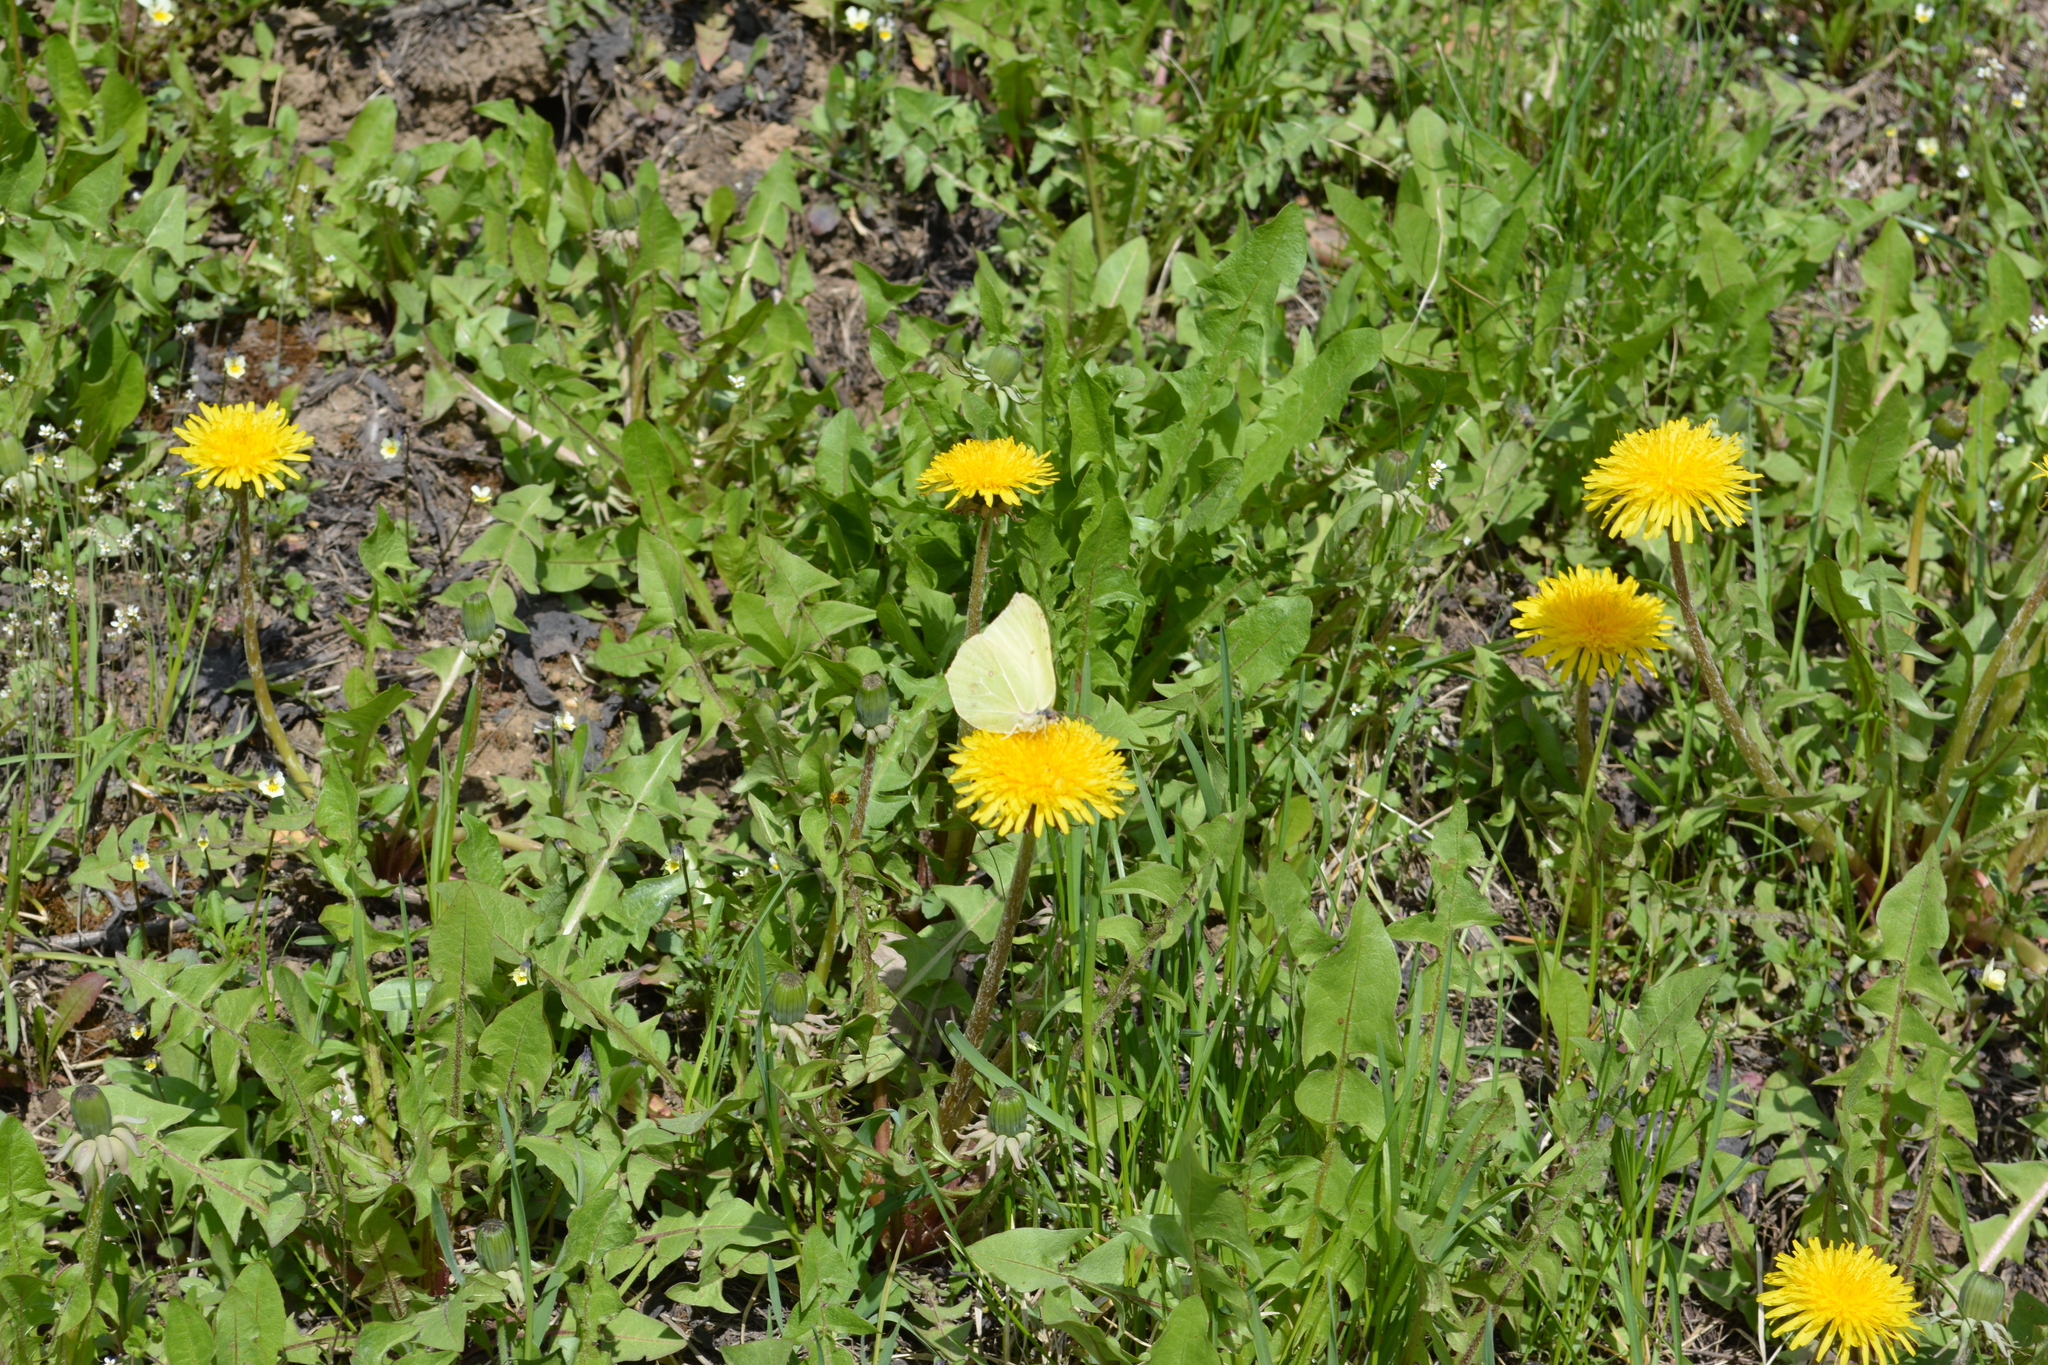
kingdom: Animalia
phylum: Arthropoda
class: Insecta
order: Lepidoptera
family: Pieridae
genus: Gonepteryx
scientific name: Gonepteryx rhamni
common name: Brimstone
